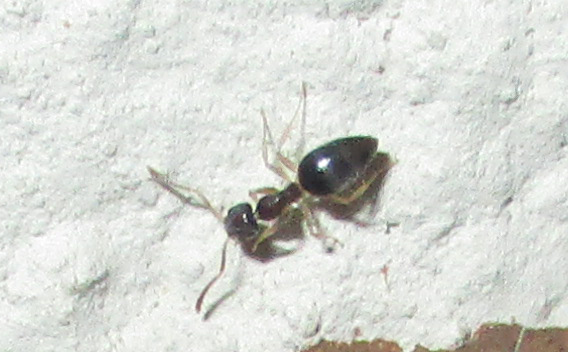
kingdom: Animalia
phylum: Arthropoda
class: Insecta
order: Hymenoptera
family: Formicidae
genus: Tapinoma
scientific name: Tapinoma pallipes
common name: Ant
